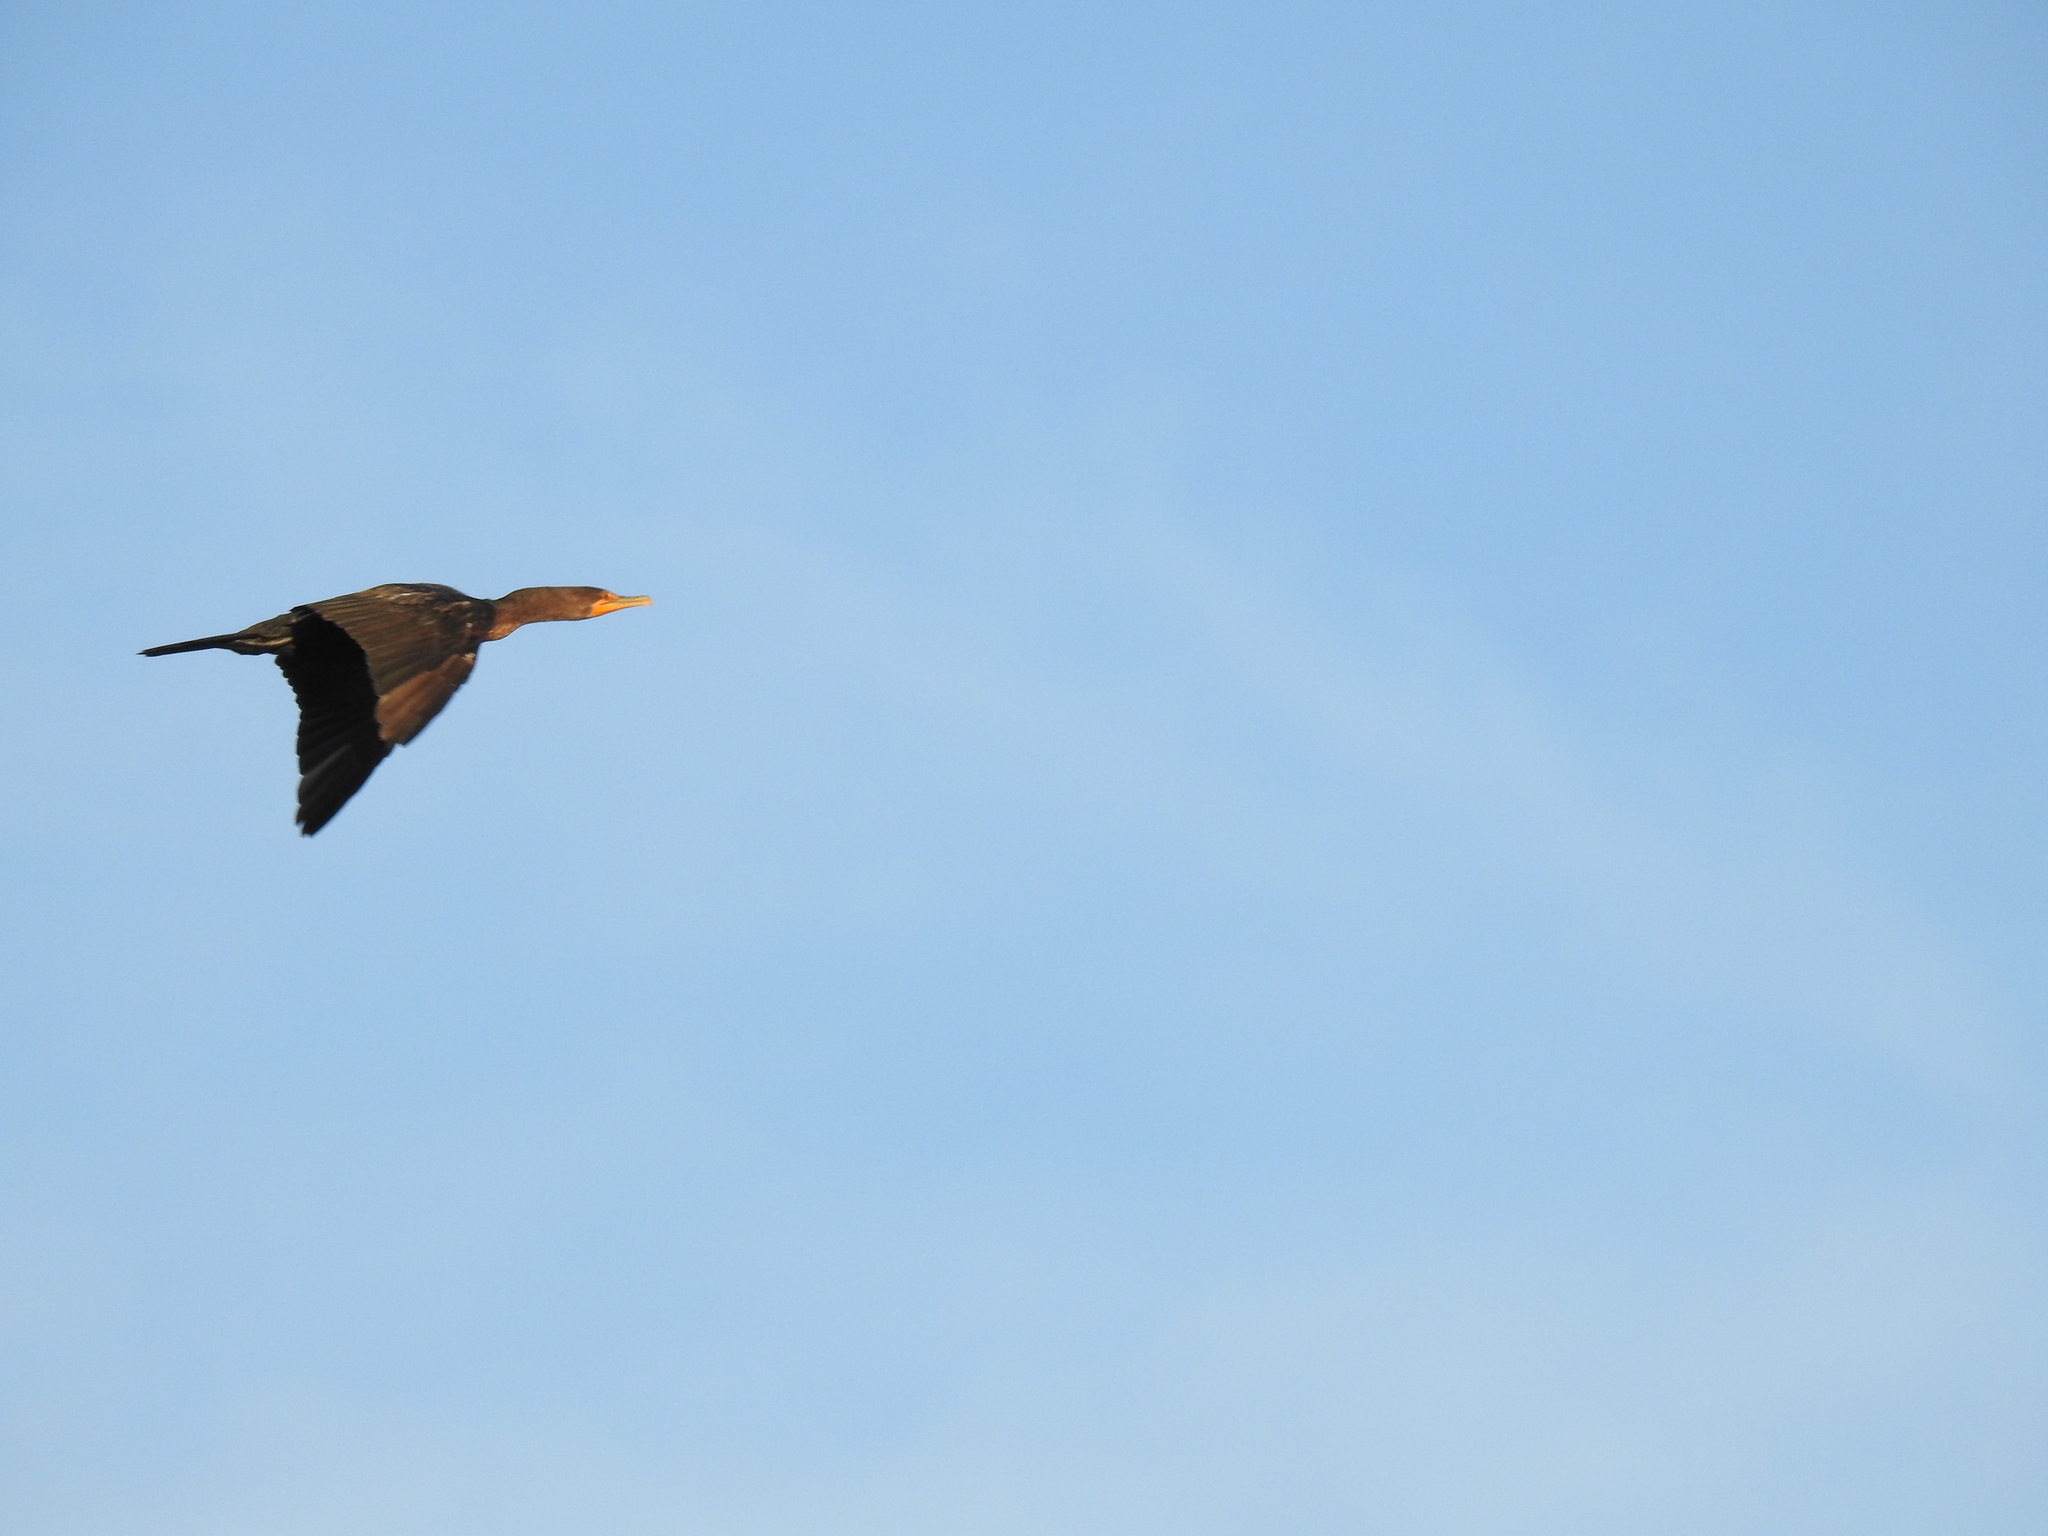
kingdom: Animalia
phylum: Chordata
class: Aves
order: Suliformes
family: Phalacrocoracidae
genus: Phalacrocorax
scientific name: Phalacrocorax auritus
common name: Double-crested cormorant
